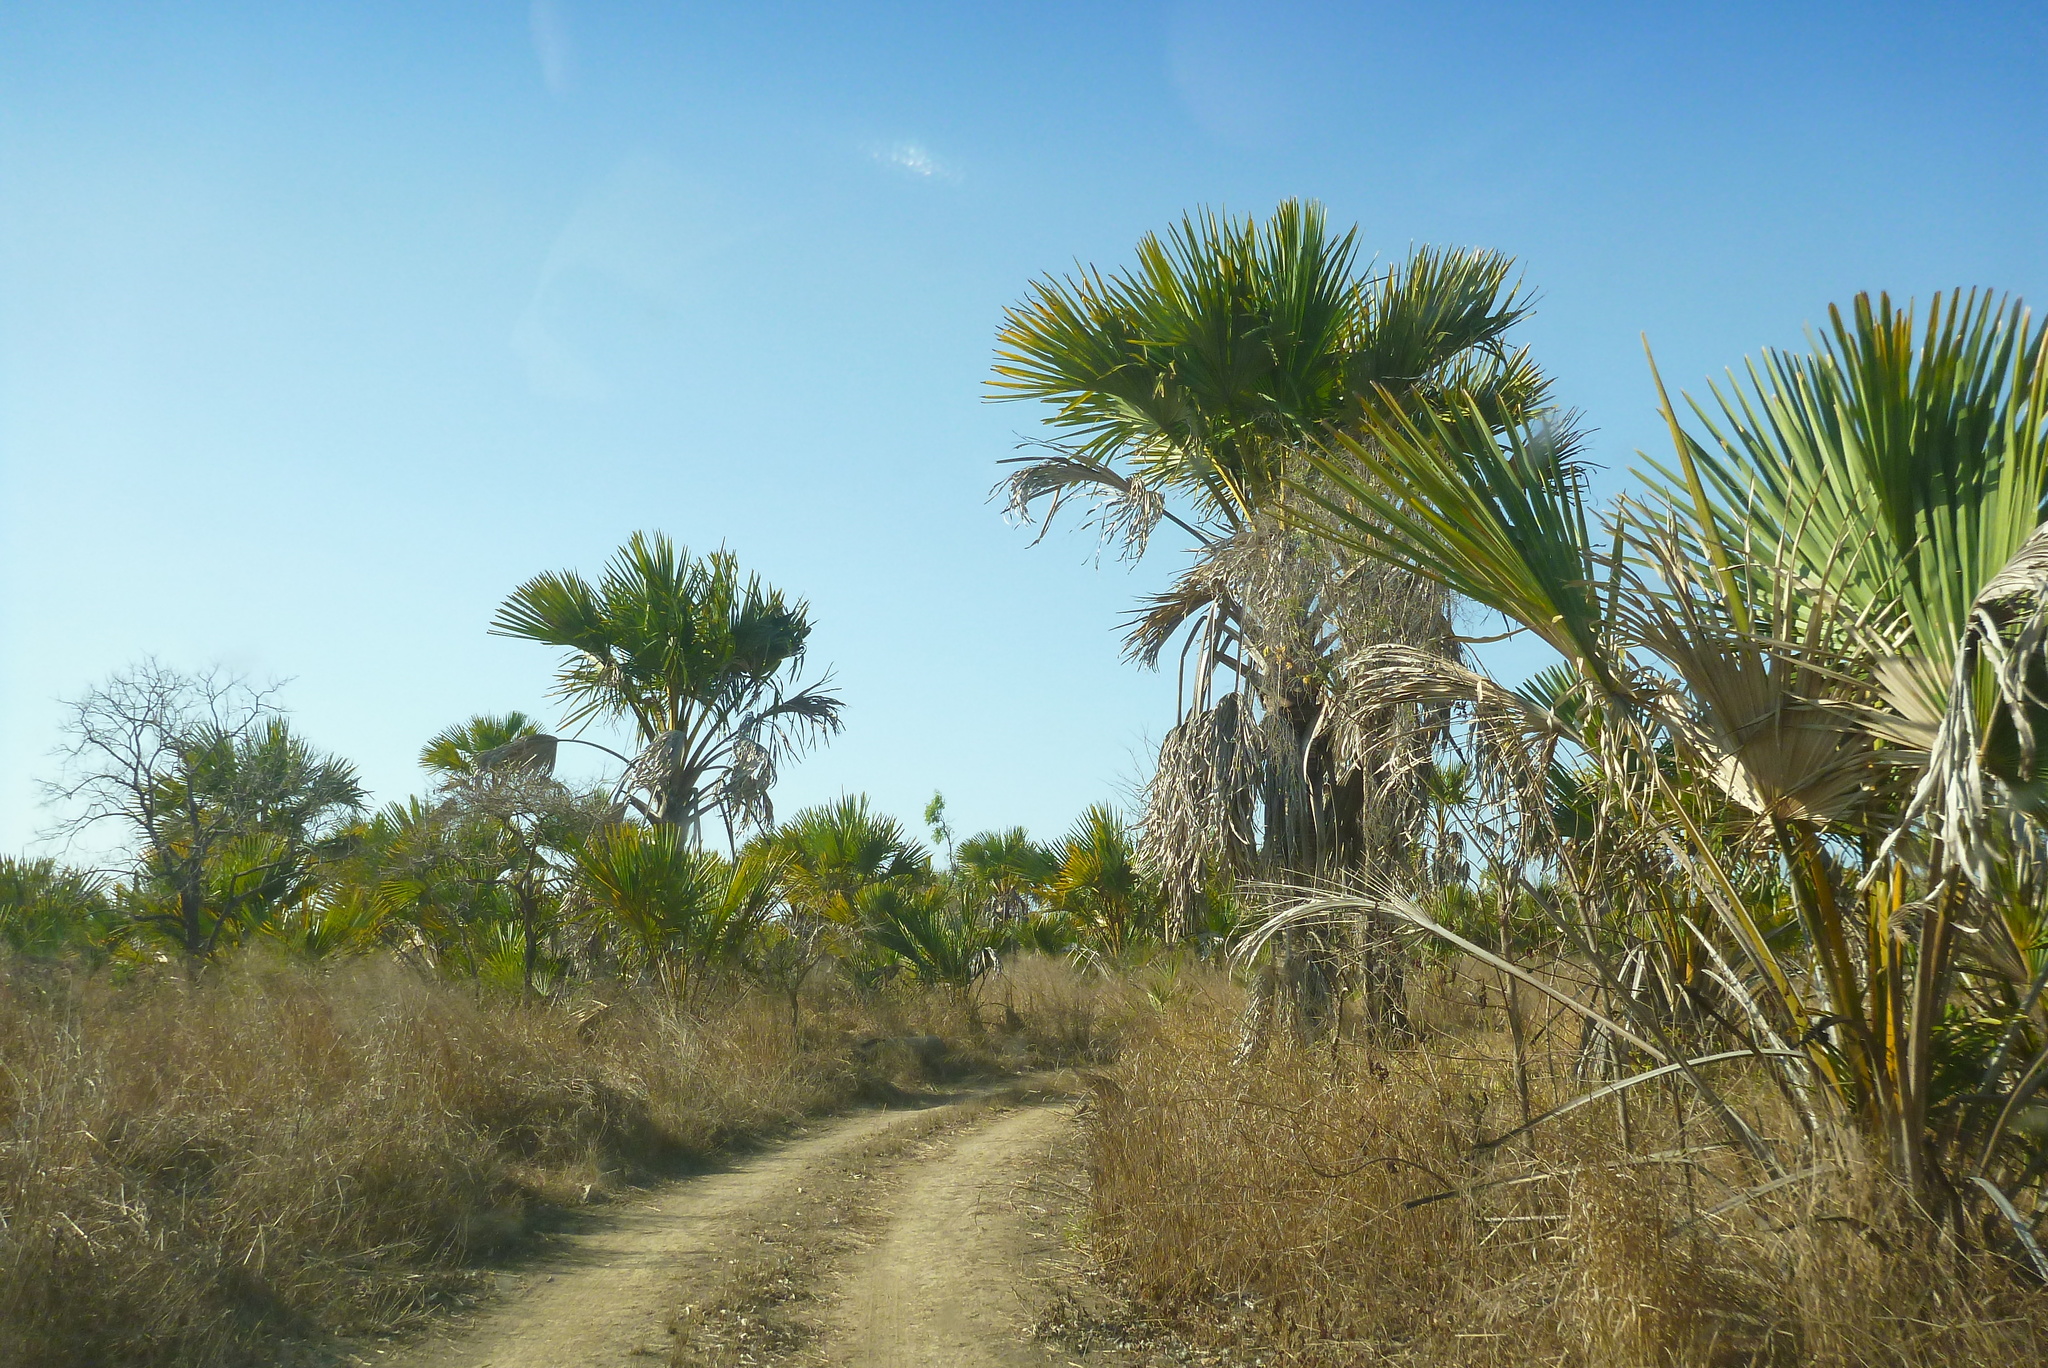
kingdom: Plantae
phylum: Tracheophyta
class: Liliopsida
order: Arecales
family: Arecaceae
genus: Corypha
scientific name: Corypha utan
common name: Buri palm
